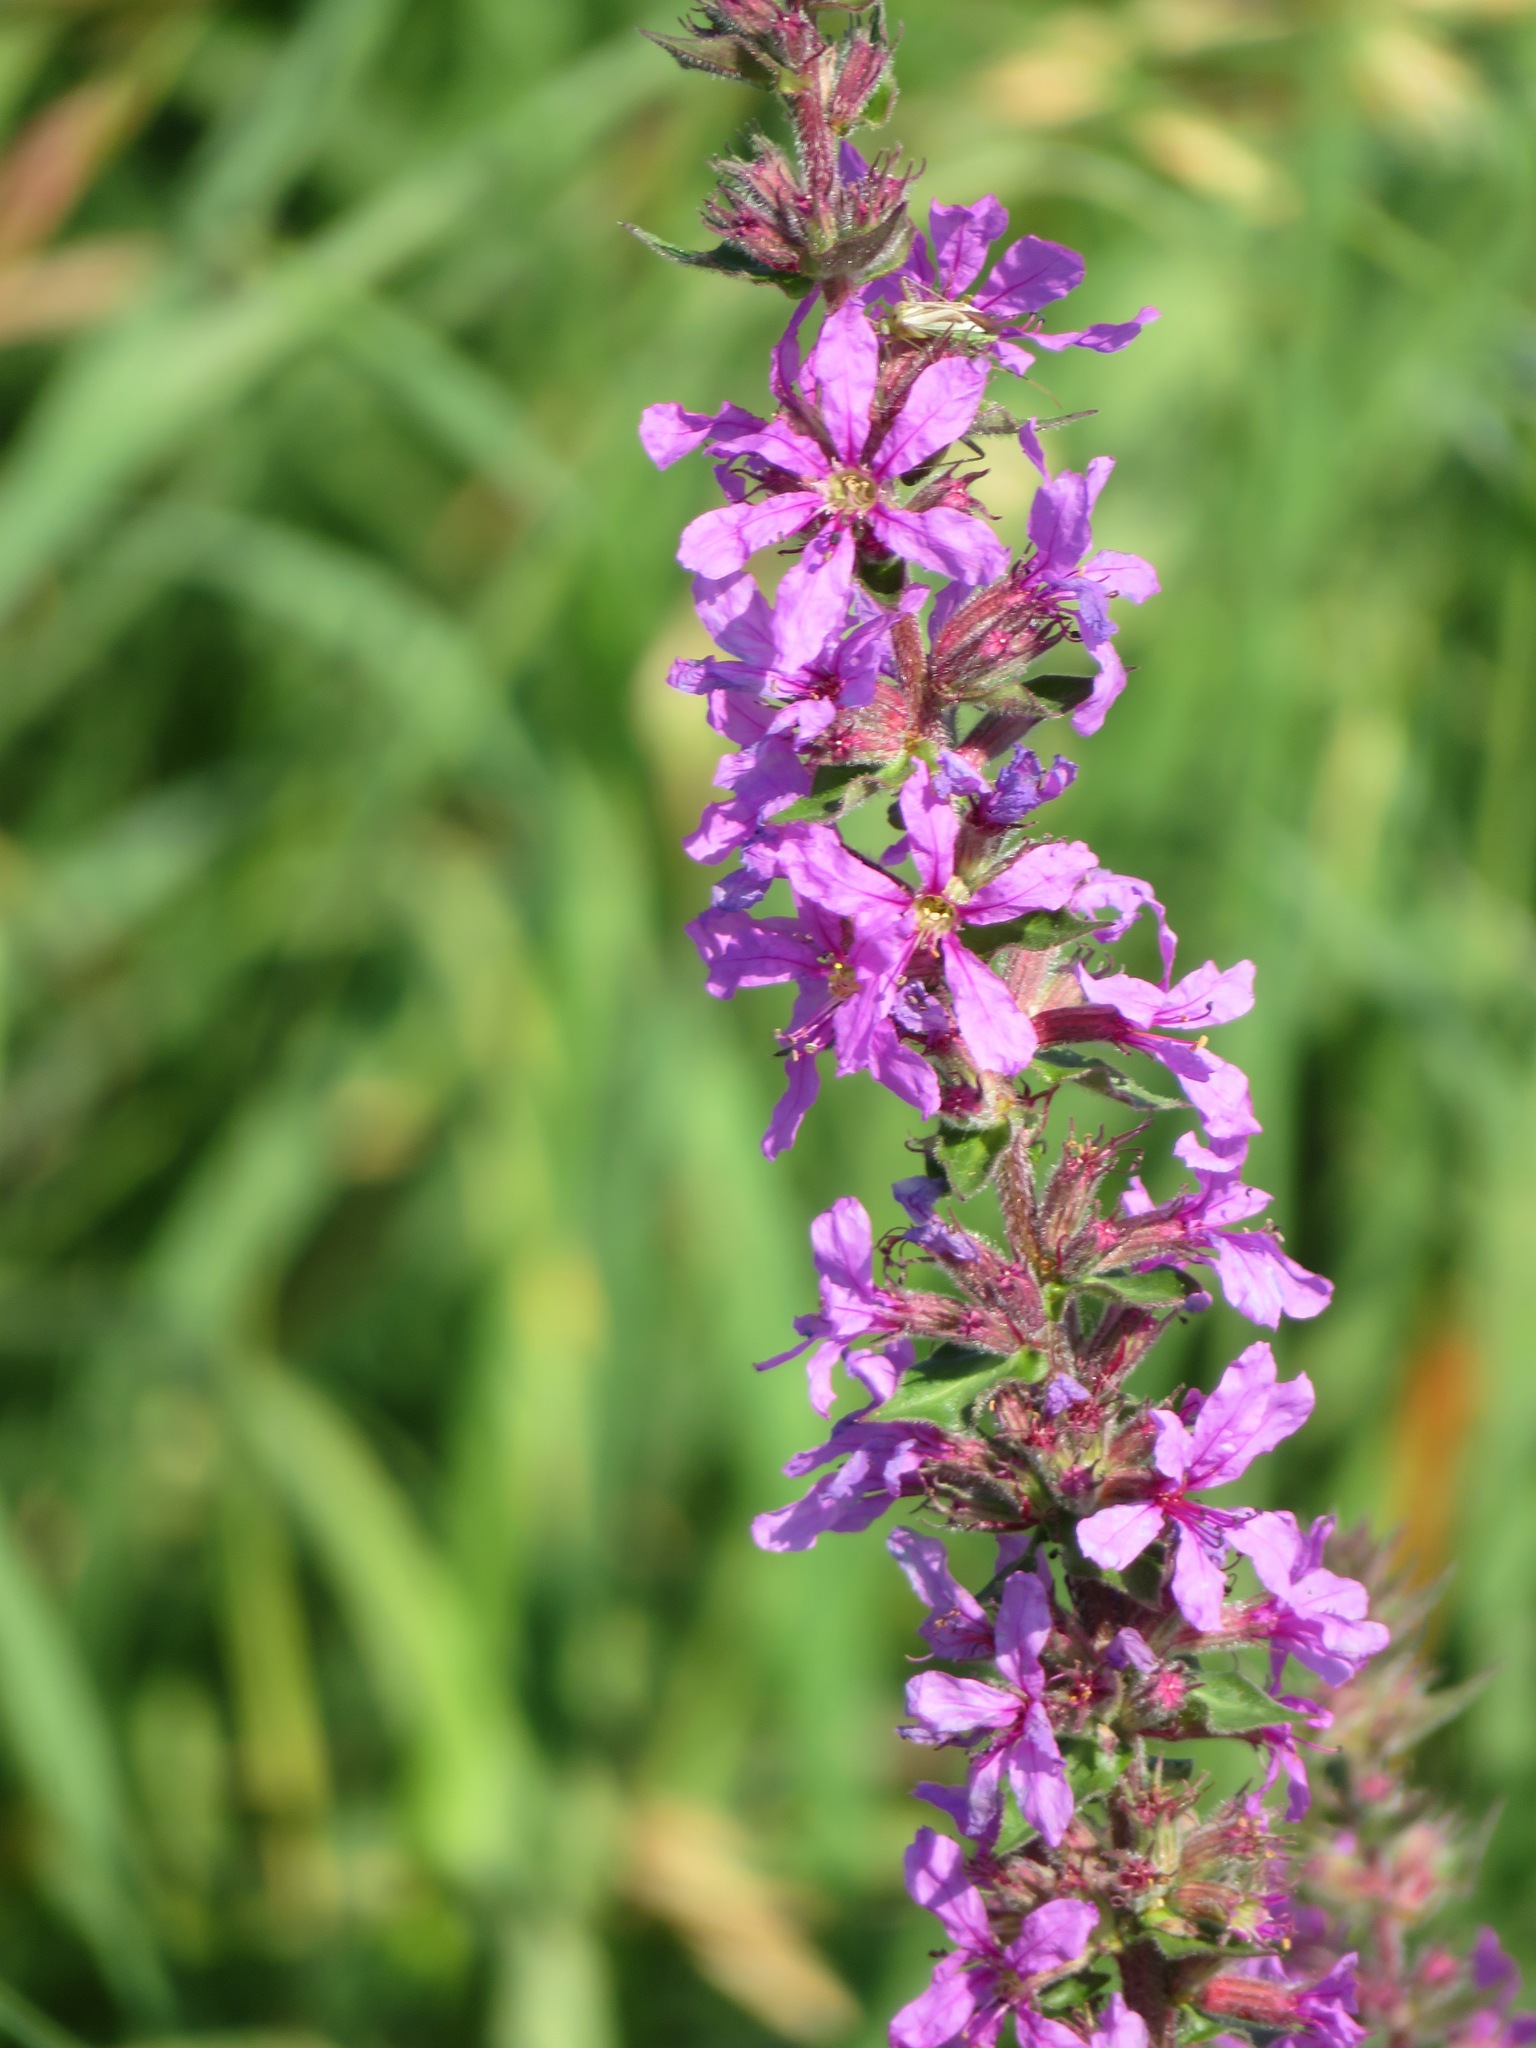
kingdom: Plantae
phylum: Tracheophyta
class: Magnoliopsida
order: Myrtales
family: Lythraceae
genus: Lythrum
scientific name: Lythrum salicaria
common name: Purple loosestrife
